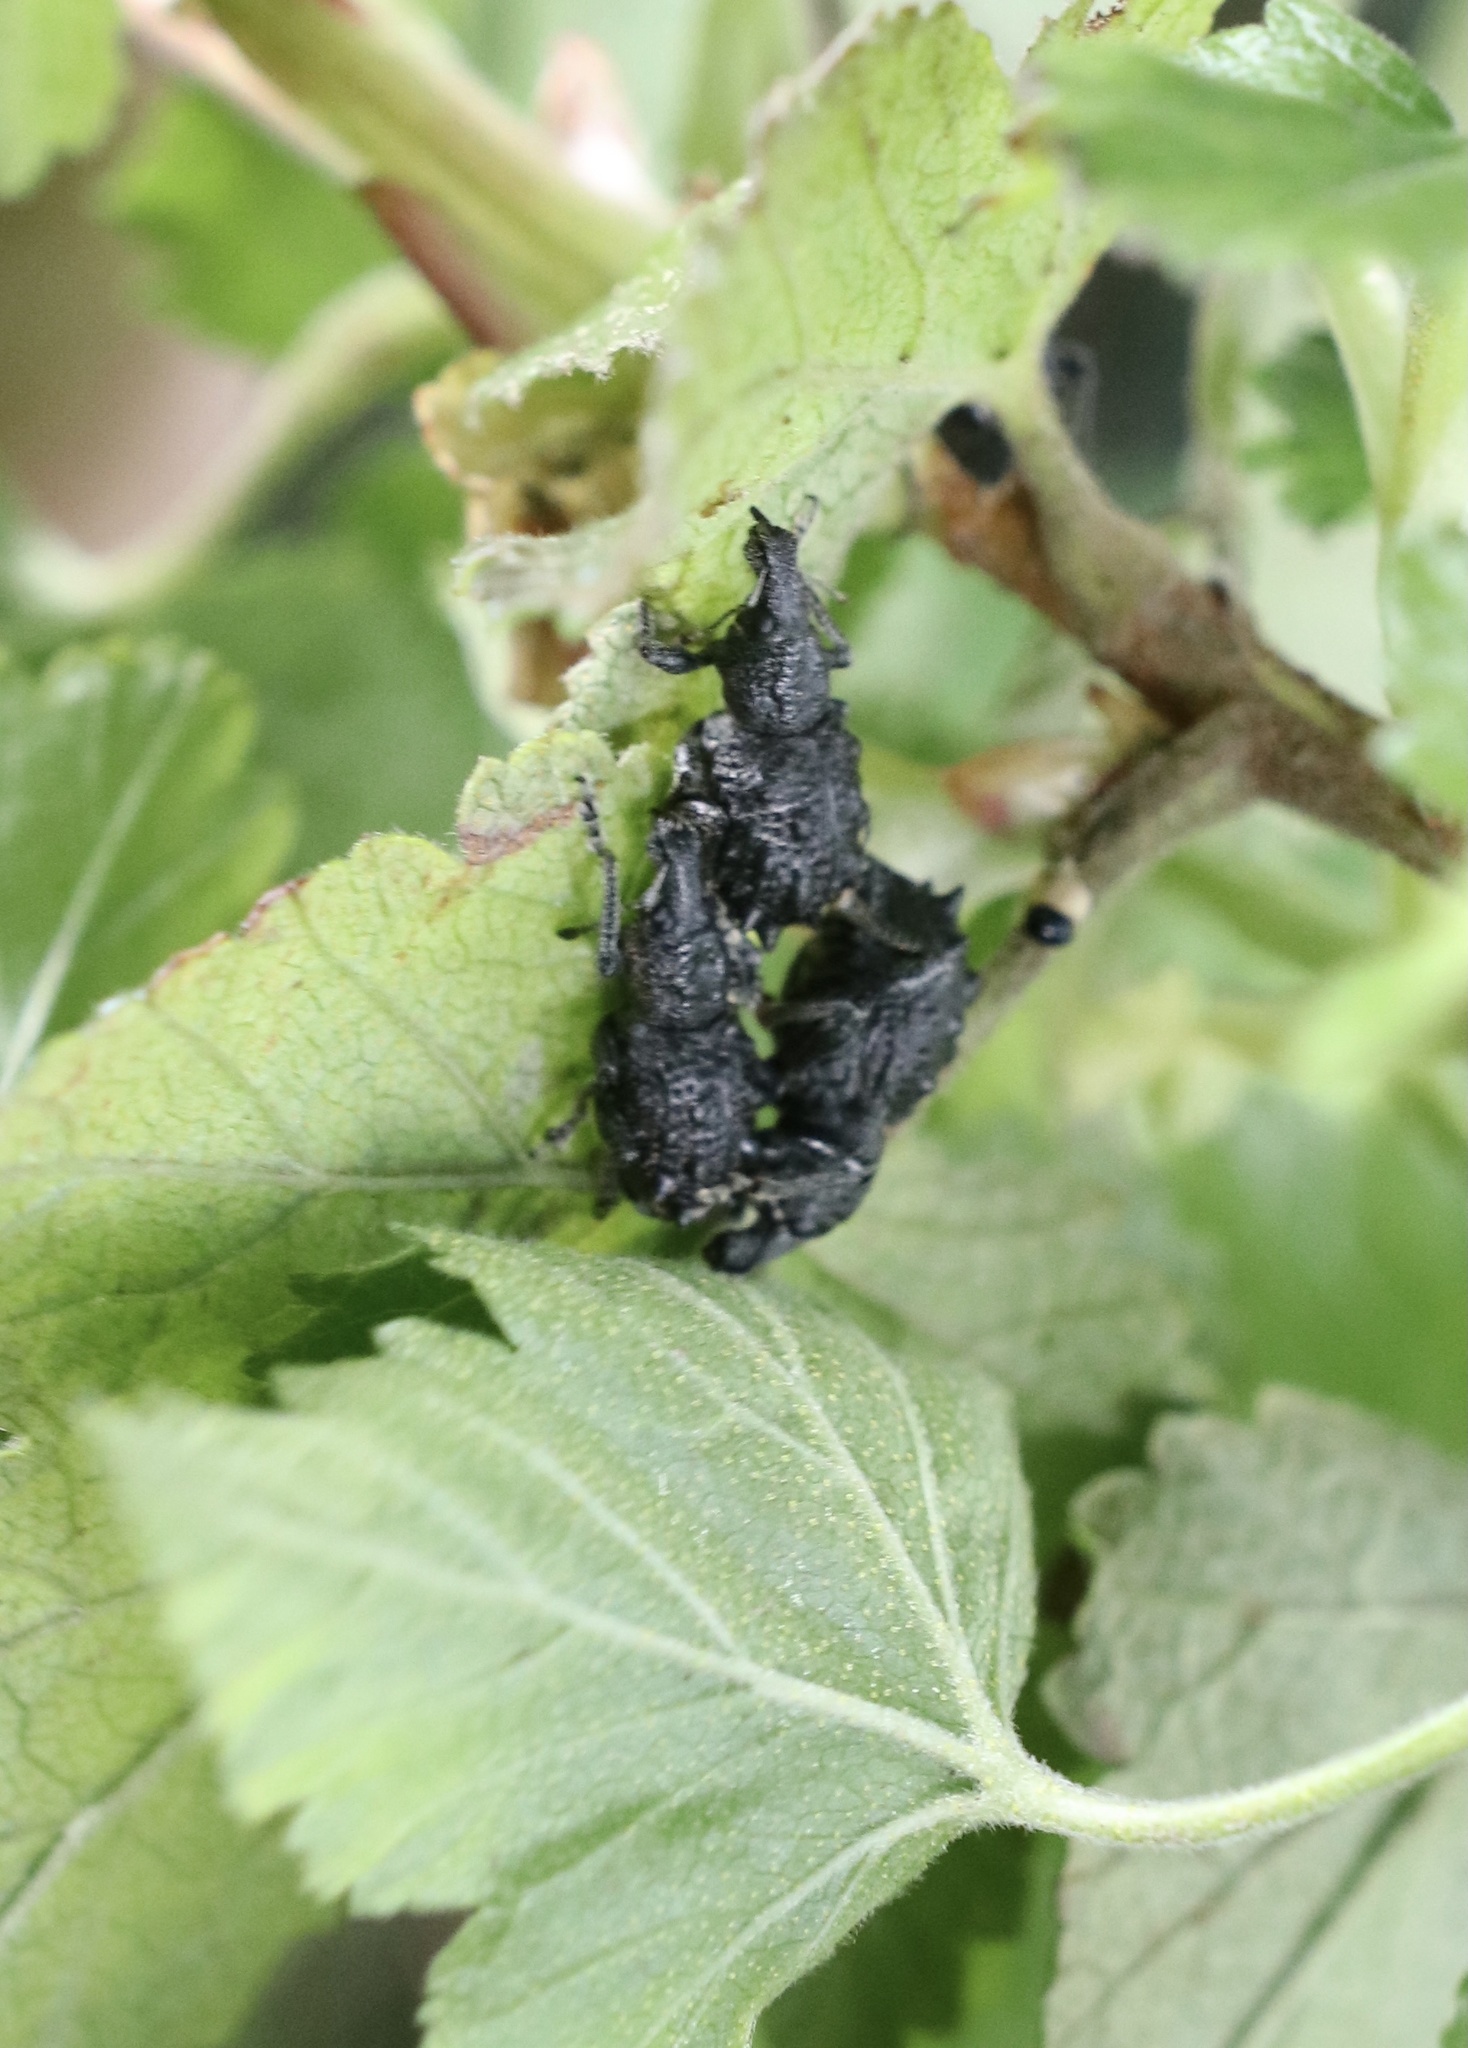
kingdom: Animalia
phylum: Arthropoda
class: Insecta
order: Coleoptera
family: Curculionidae
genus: Megalometis
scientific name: Megalometis spiniferus
